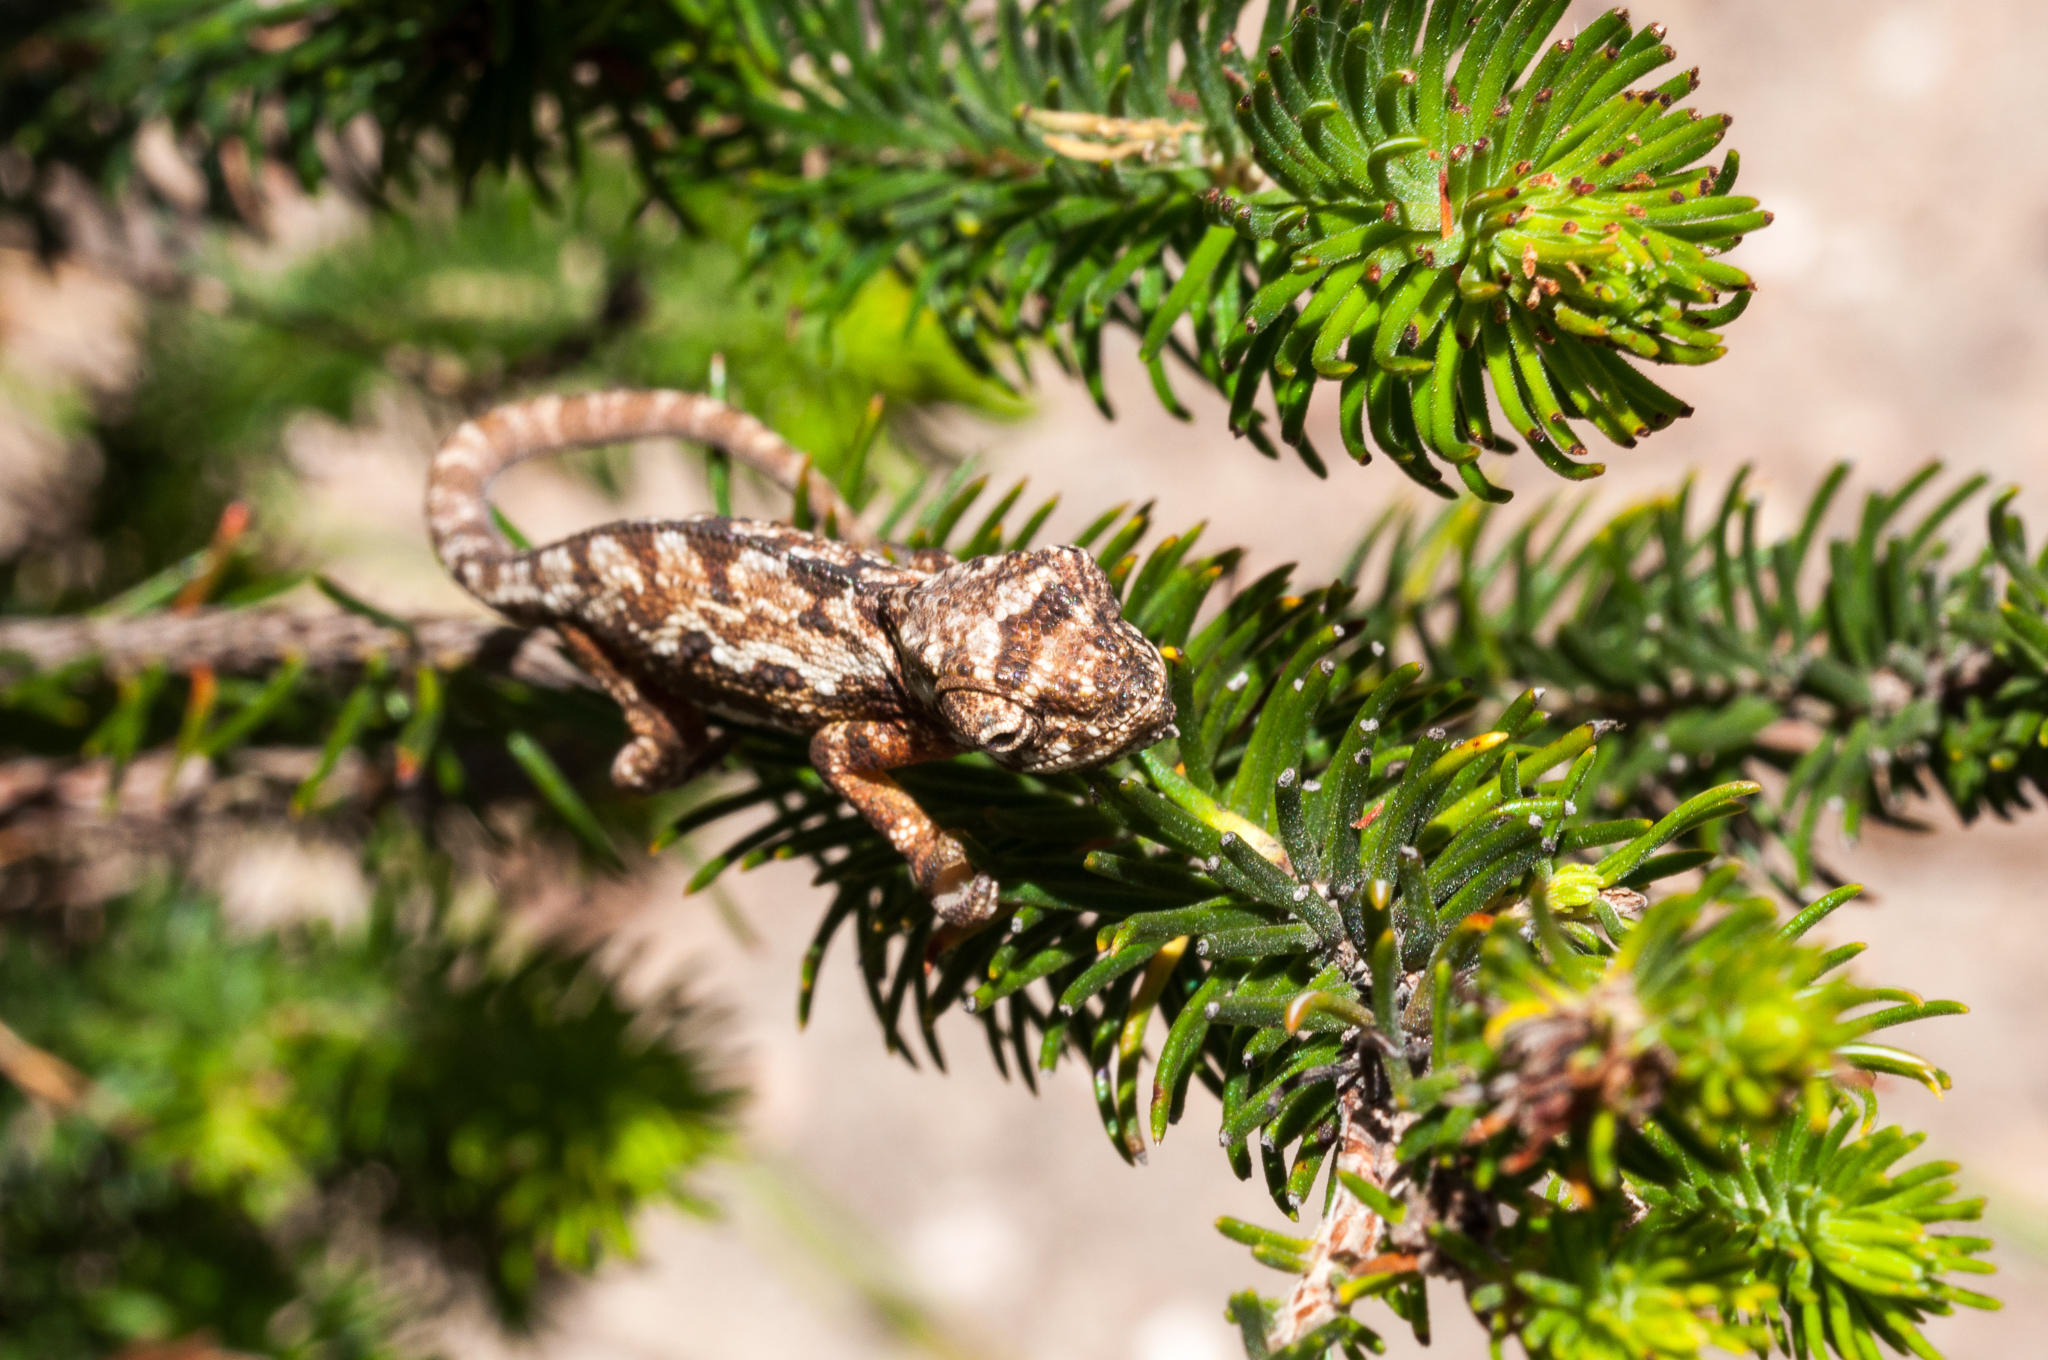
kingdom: Animalia
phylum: Chordata
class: Squamata
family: Chamaeleonidae
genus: Bradypodion
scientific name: Bradypodion pumilum
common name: Cape dwarf chameleon
